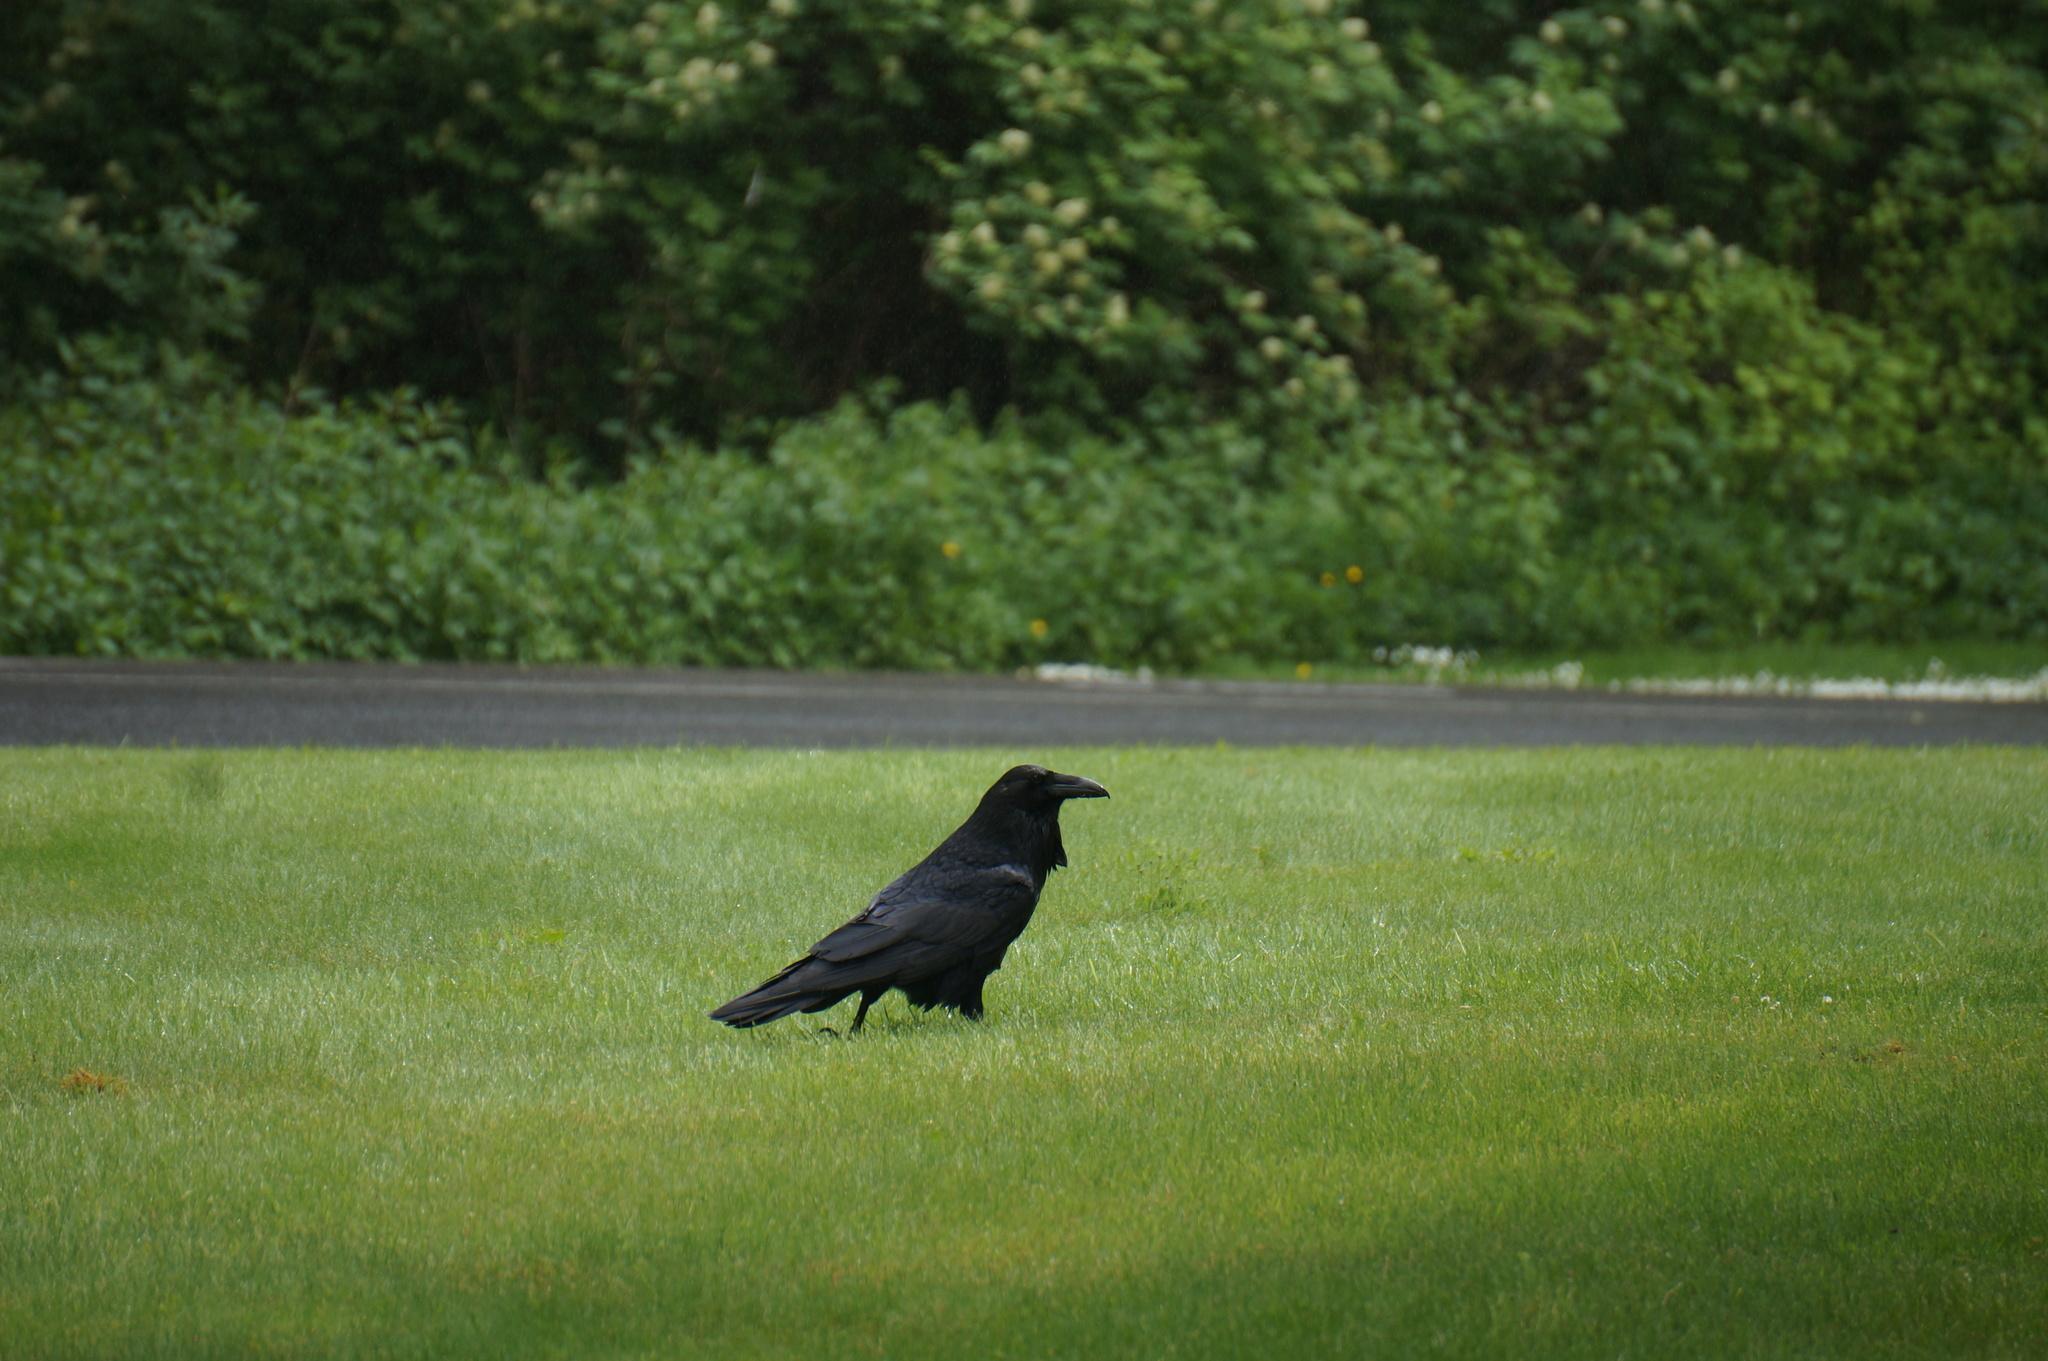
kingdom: Animalia
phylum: Chordata
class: Aves
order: Passeriformes
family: Corvidae
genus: Corvus
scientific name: Corvus corax
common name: Common raven
